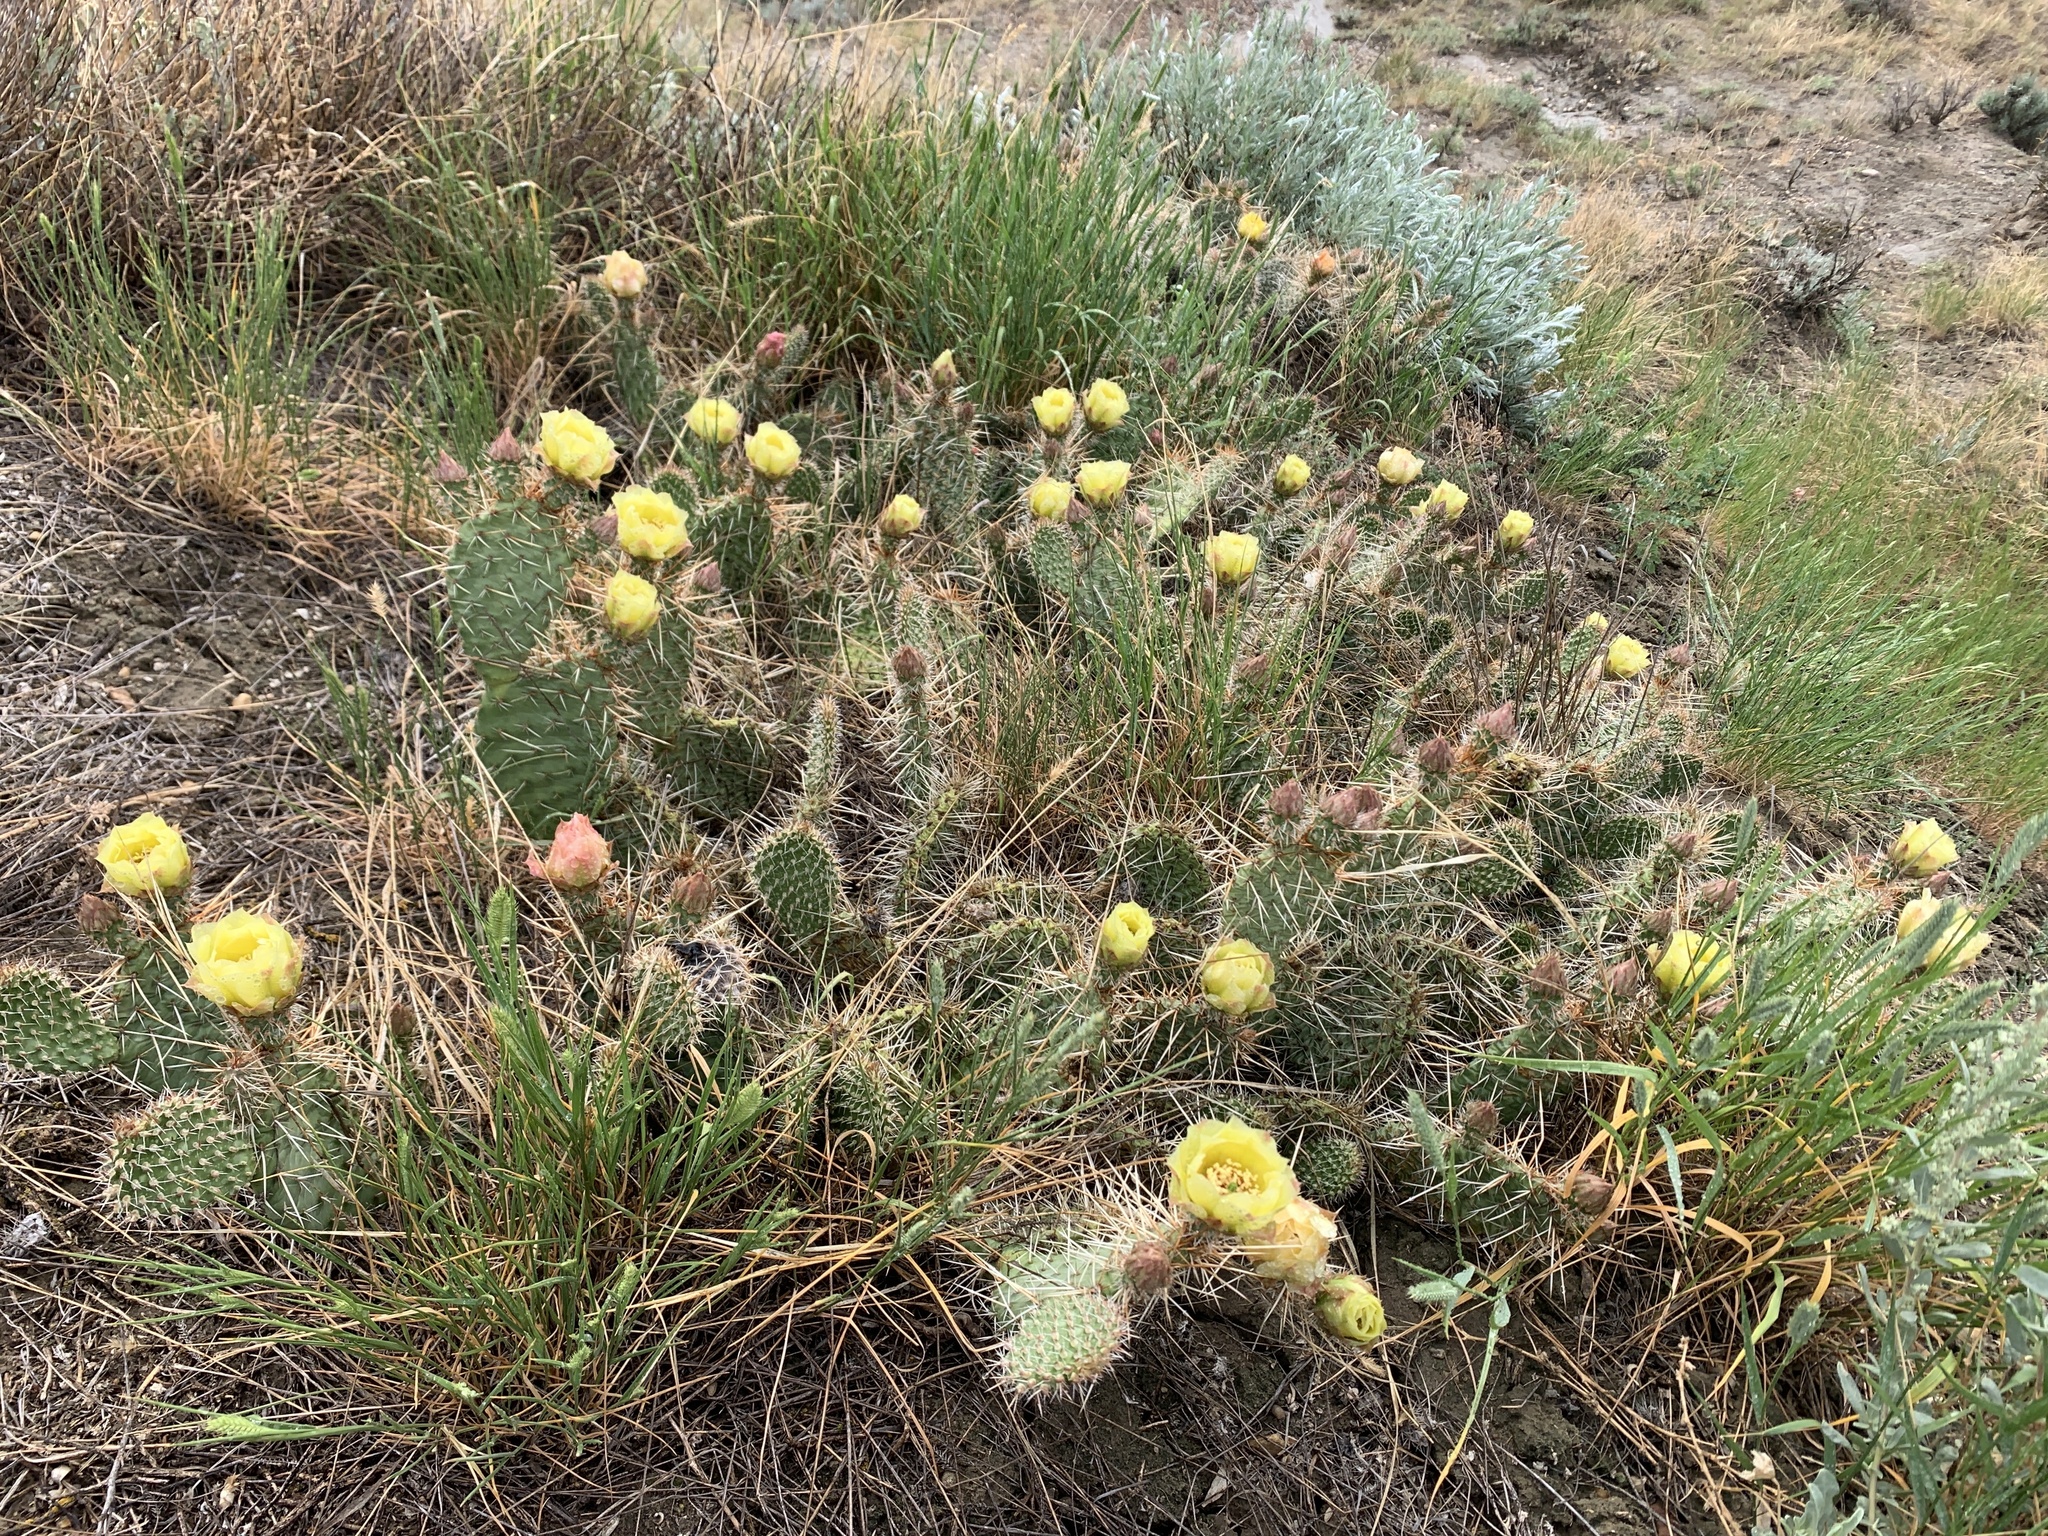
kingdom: Plantae
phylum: Tracheophyta
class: Magnoliopsida
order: Caryophyllales
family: Cactaceae
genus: Opuntia
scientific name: Opuntia polyacantha
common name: Plains prickly-pear
